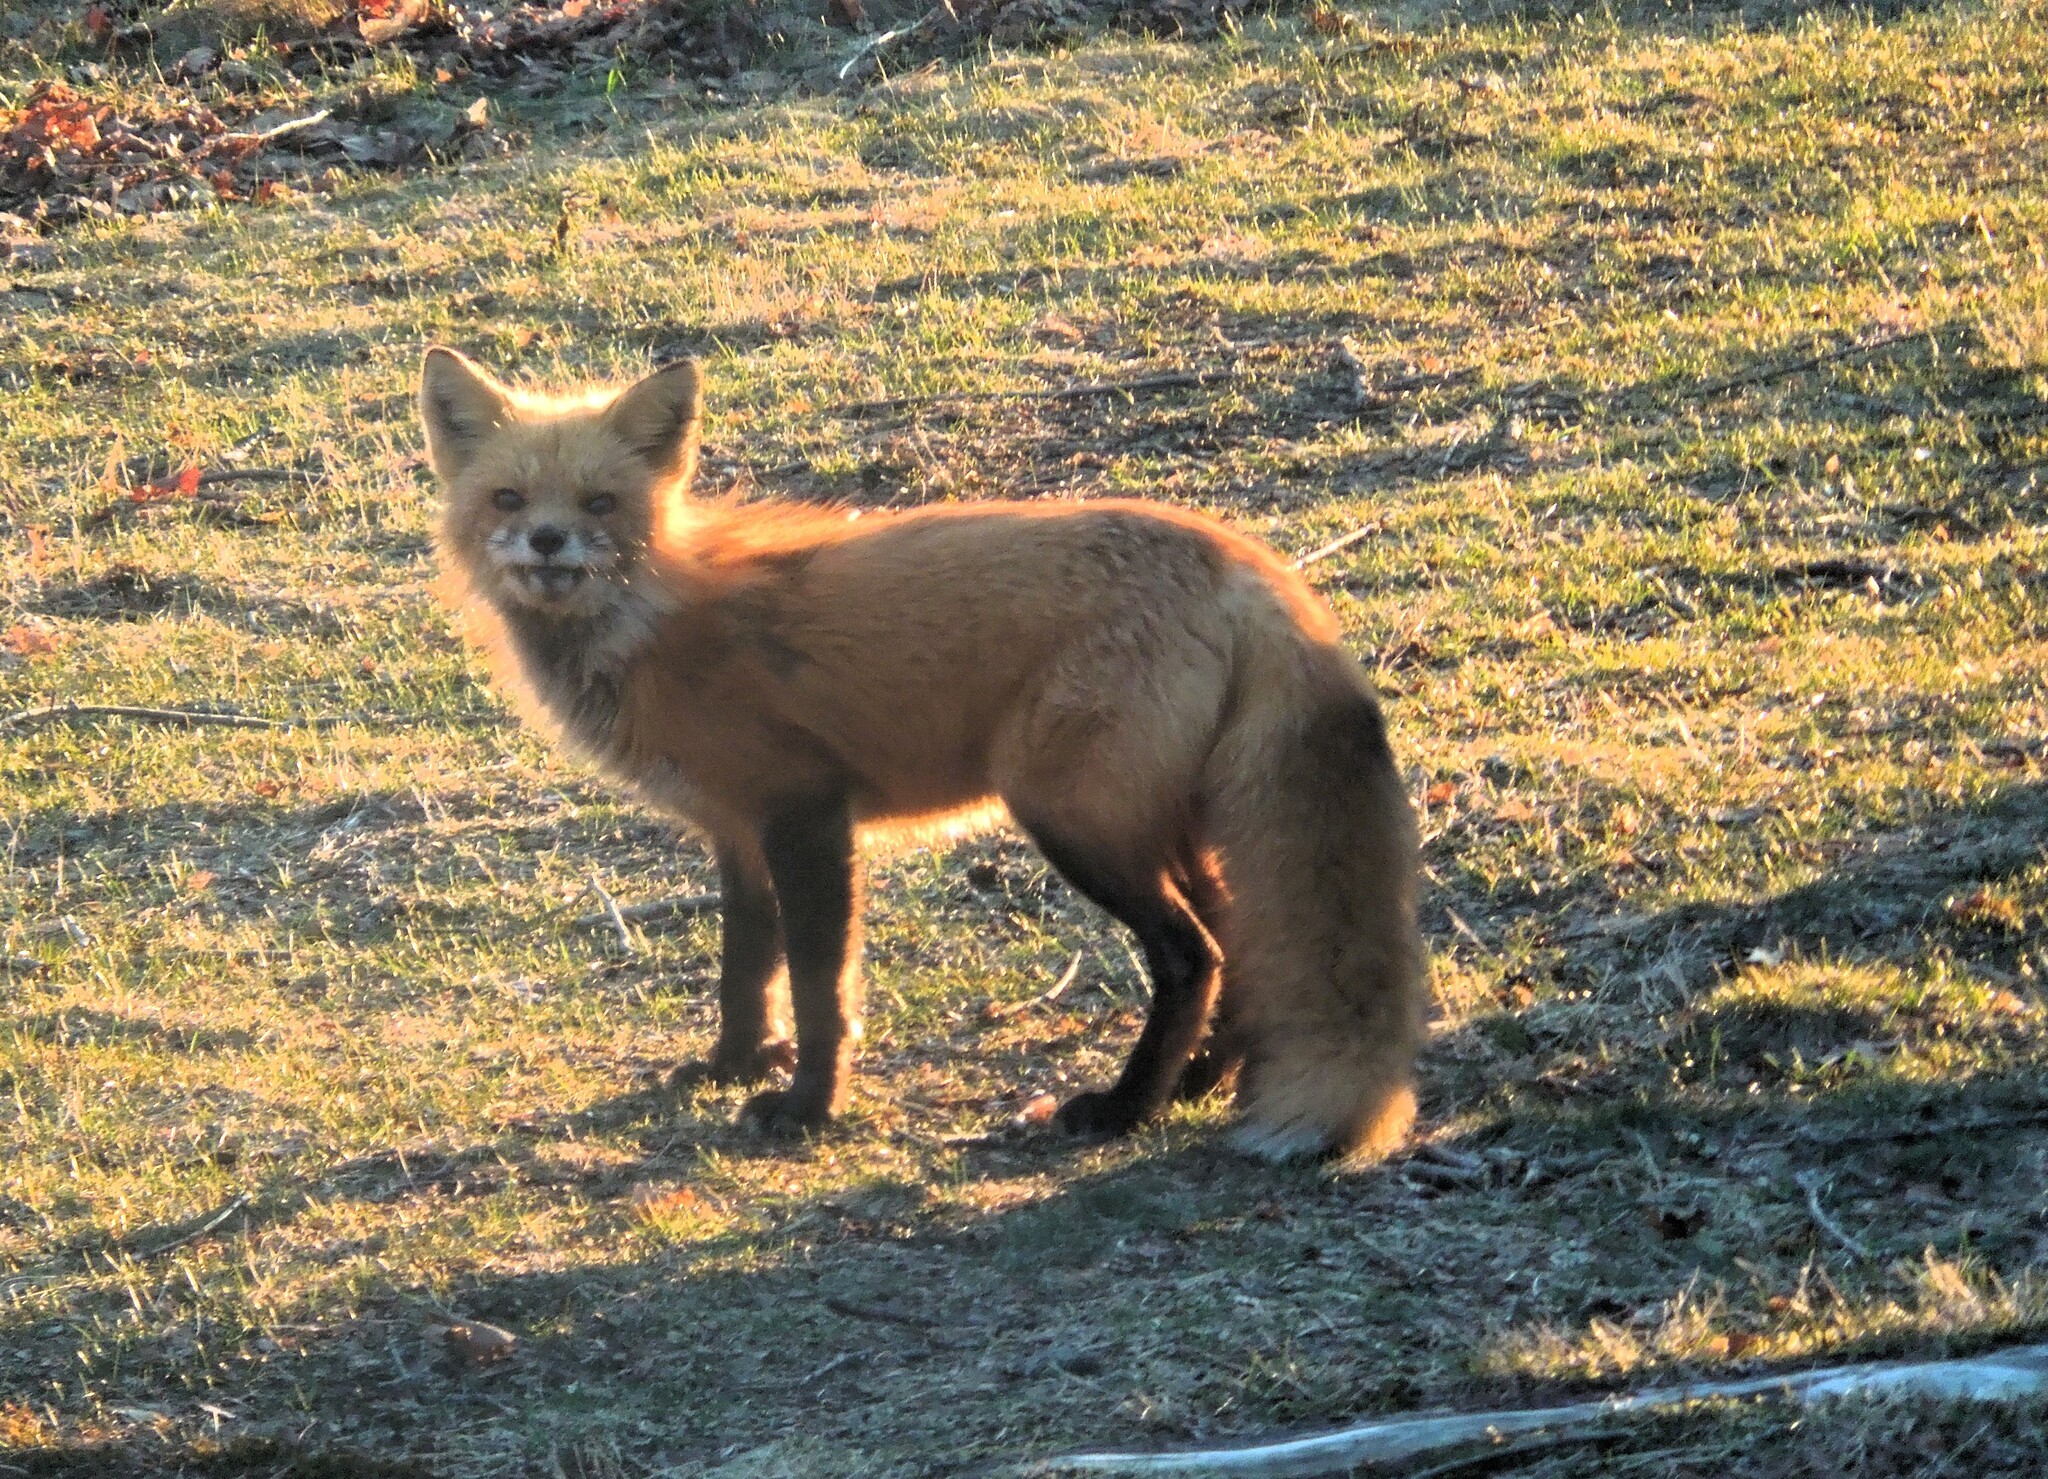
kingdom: Animalia
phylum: Chordata
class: Mammalia
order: Carnivora
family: Canidae
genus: Vulpes
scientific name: Vulpes vulpes
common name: Red fox
